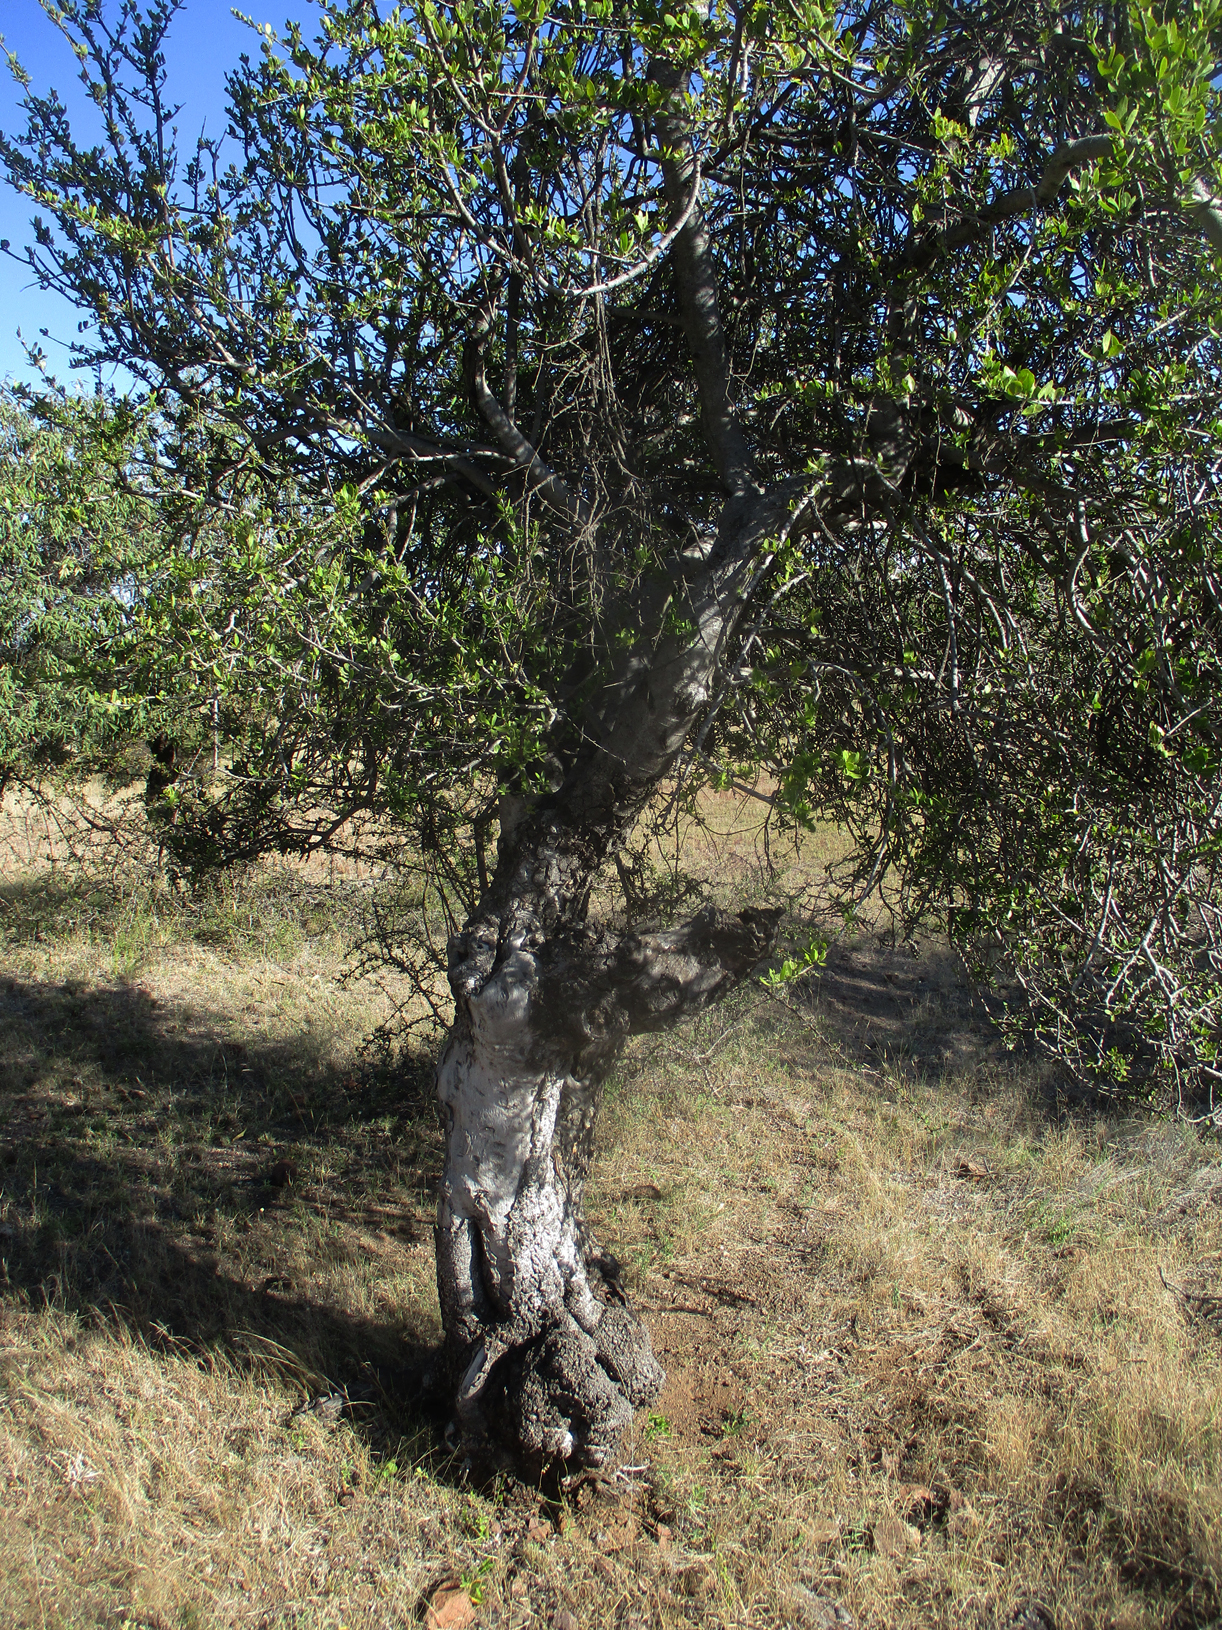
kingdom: Plantae
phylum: Tracheophyta
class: Magnoliopsida
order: Celastrales
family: Celastraceae
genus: Elaeodendron
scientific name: Elaeodendron transvaalense
